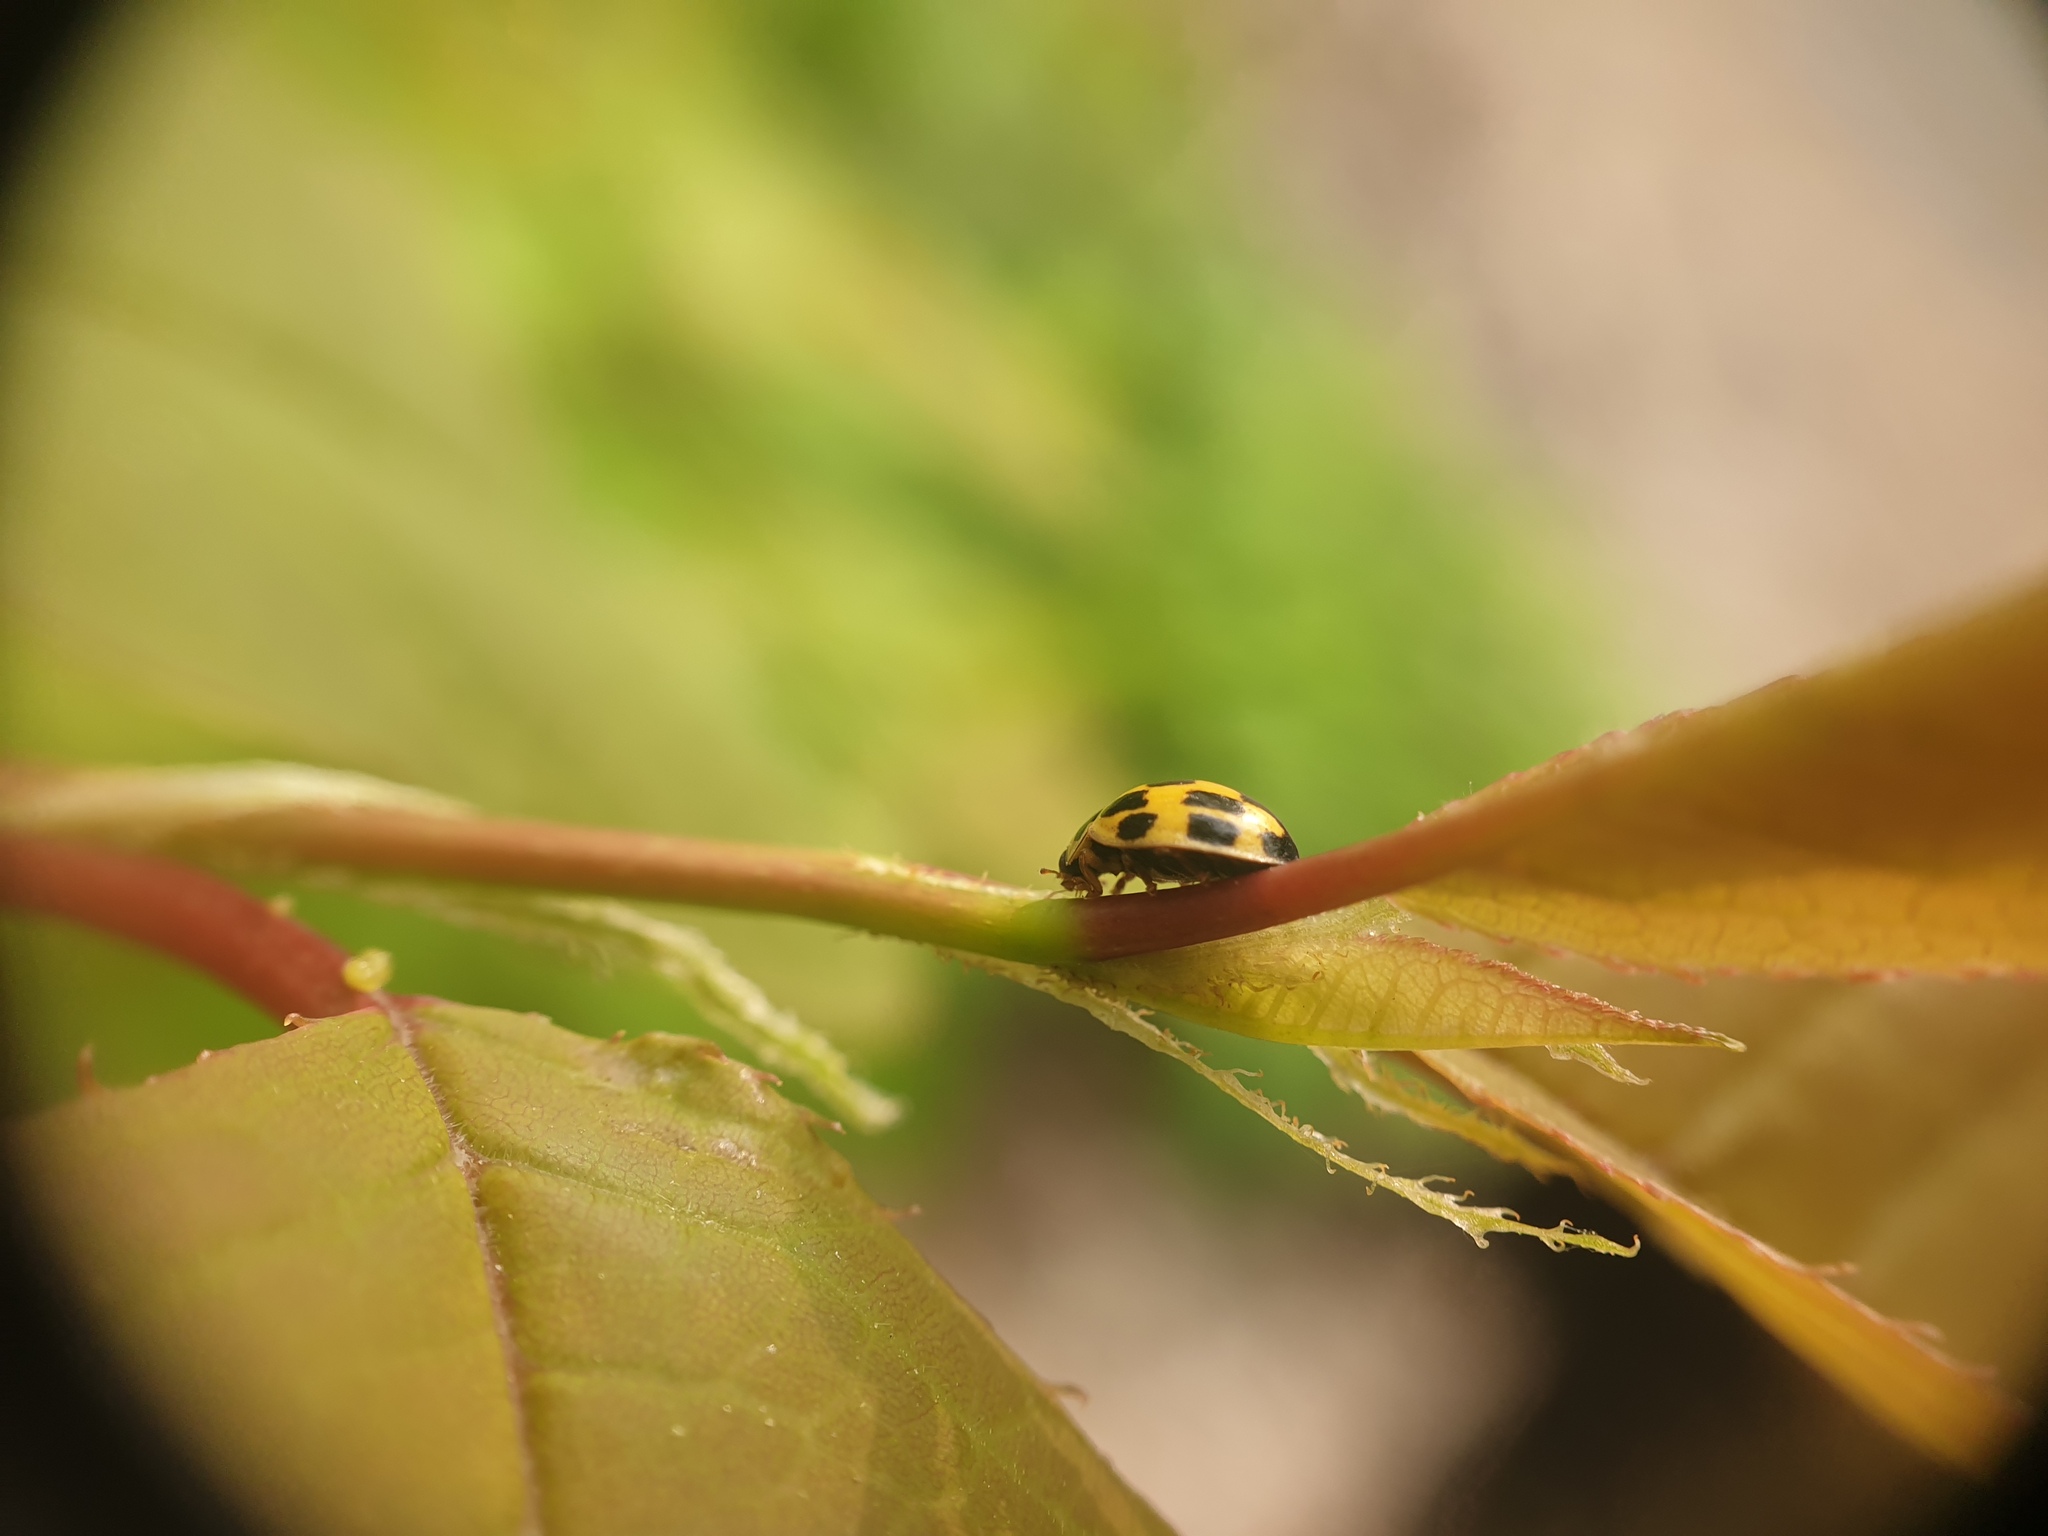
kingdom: Animalia
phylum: Arthropoda
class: Insecta
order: Coleoptera
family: Coccinellidae
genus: Propylaea
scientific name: Propylaea quatuordecimpunctata
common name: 14-spotted ladybird beetle
